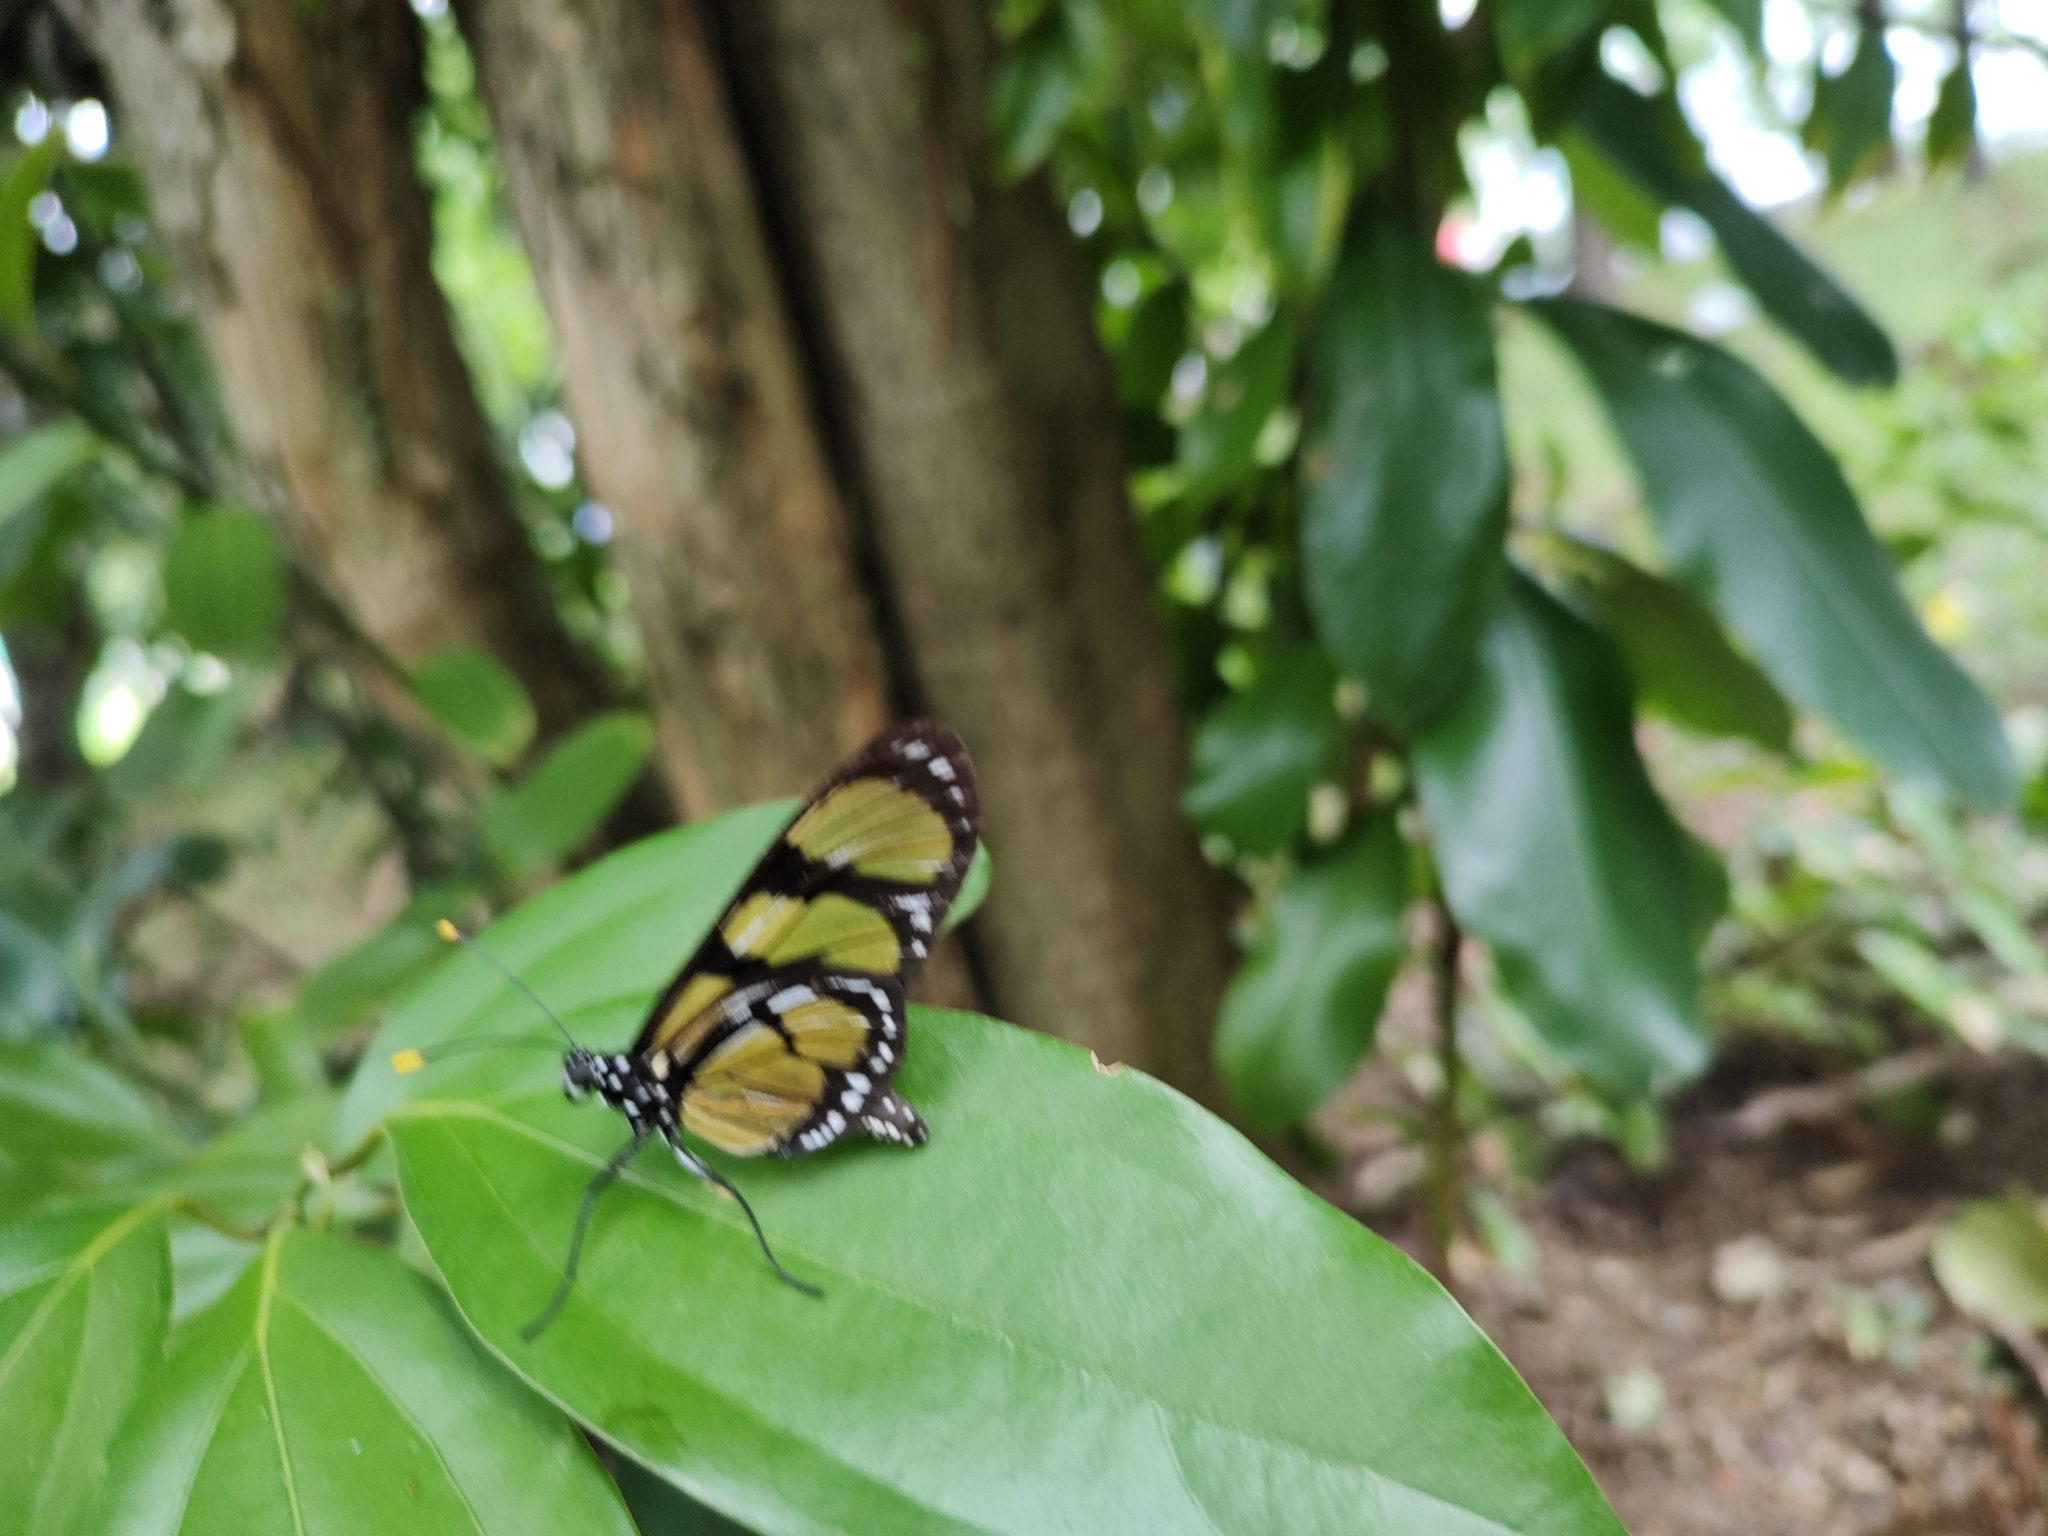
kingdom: Animalia
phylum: Arthropoda
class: Insecta
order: Lepidoptera
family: Nymphalidae
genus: Methona
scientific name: Methona themisto
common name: Themisto amberwing
